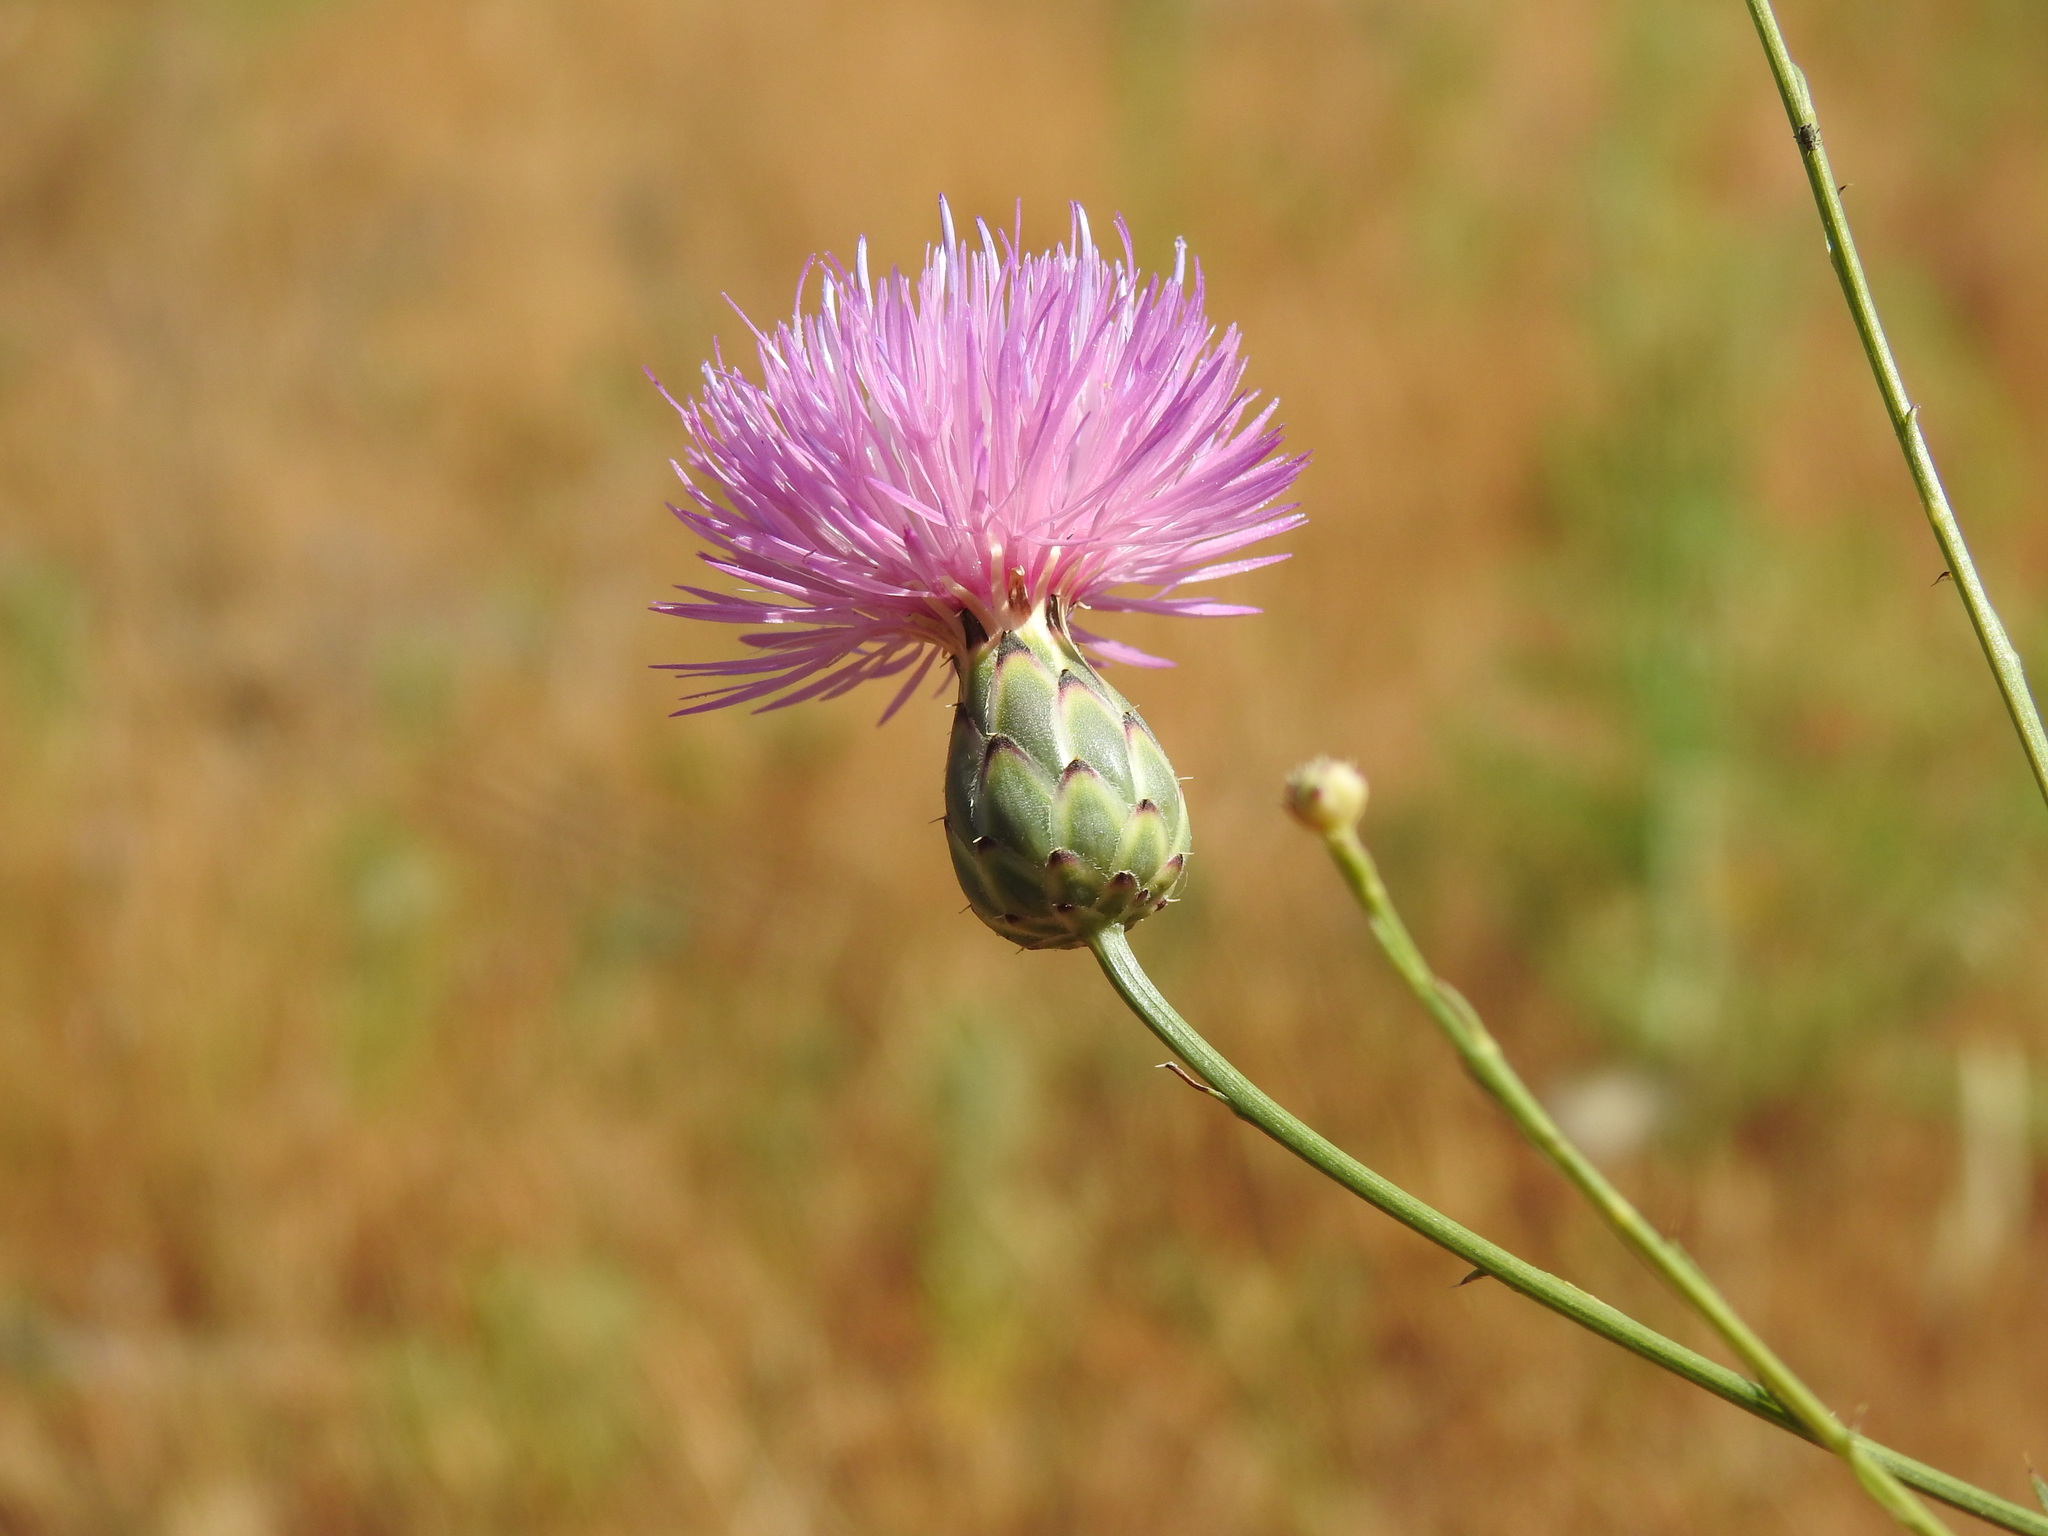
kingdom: Plantae
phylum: Tracheophyta
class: Magnoliopsida
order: Asterales
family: Asteraceae
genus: Mantisalca
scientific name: Mantisalca salmantica
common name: Dagger flower
